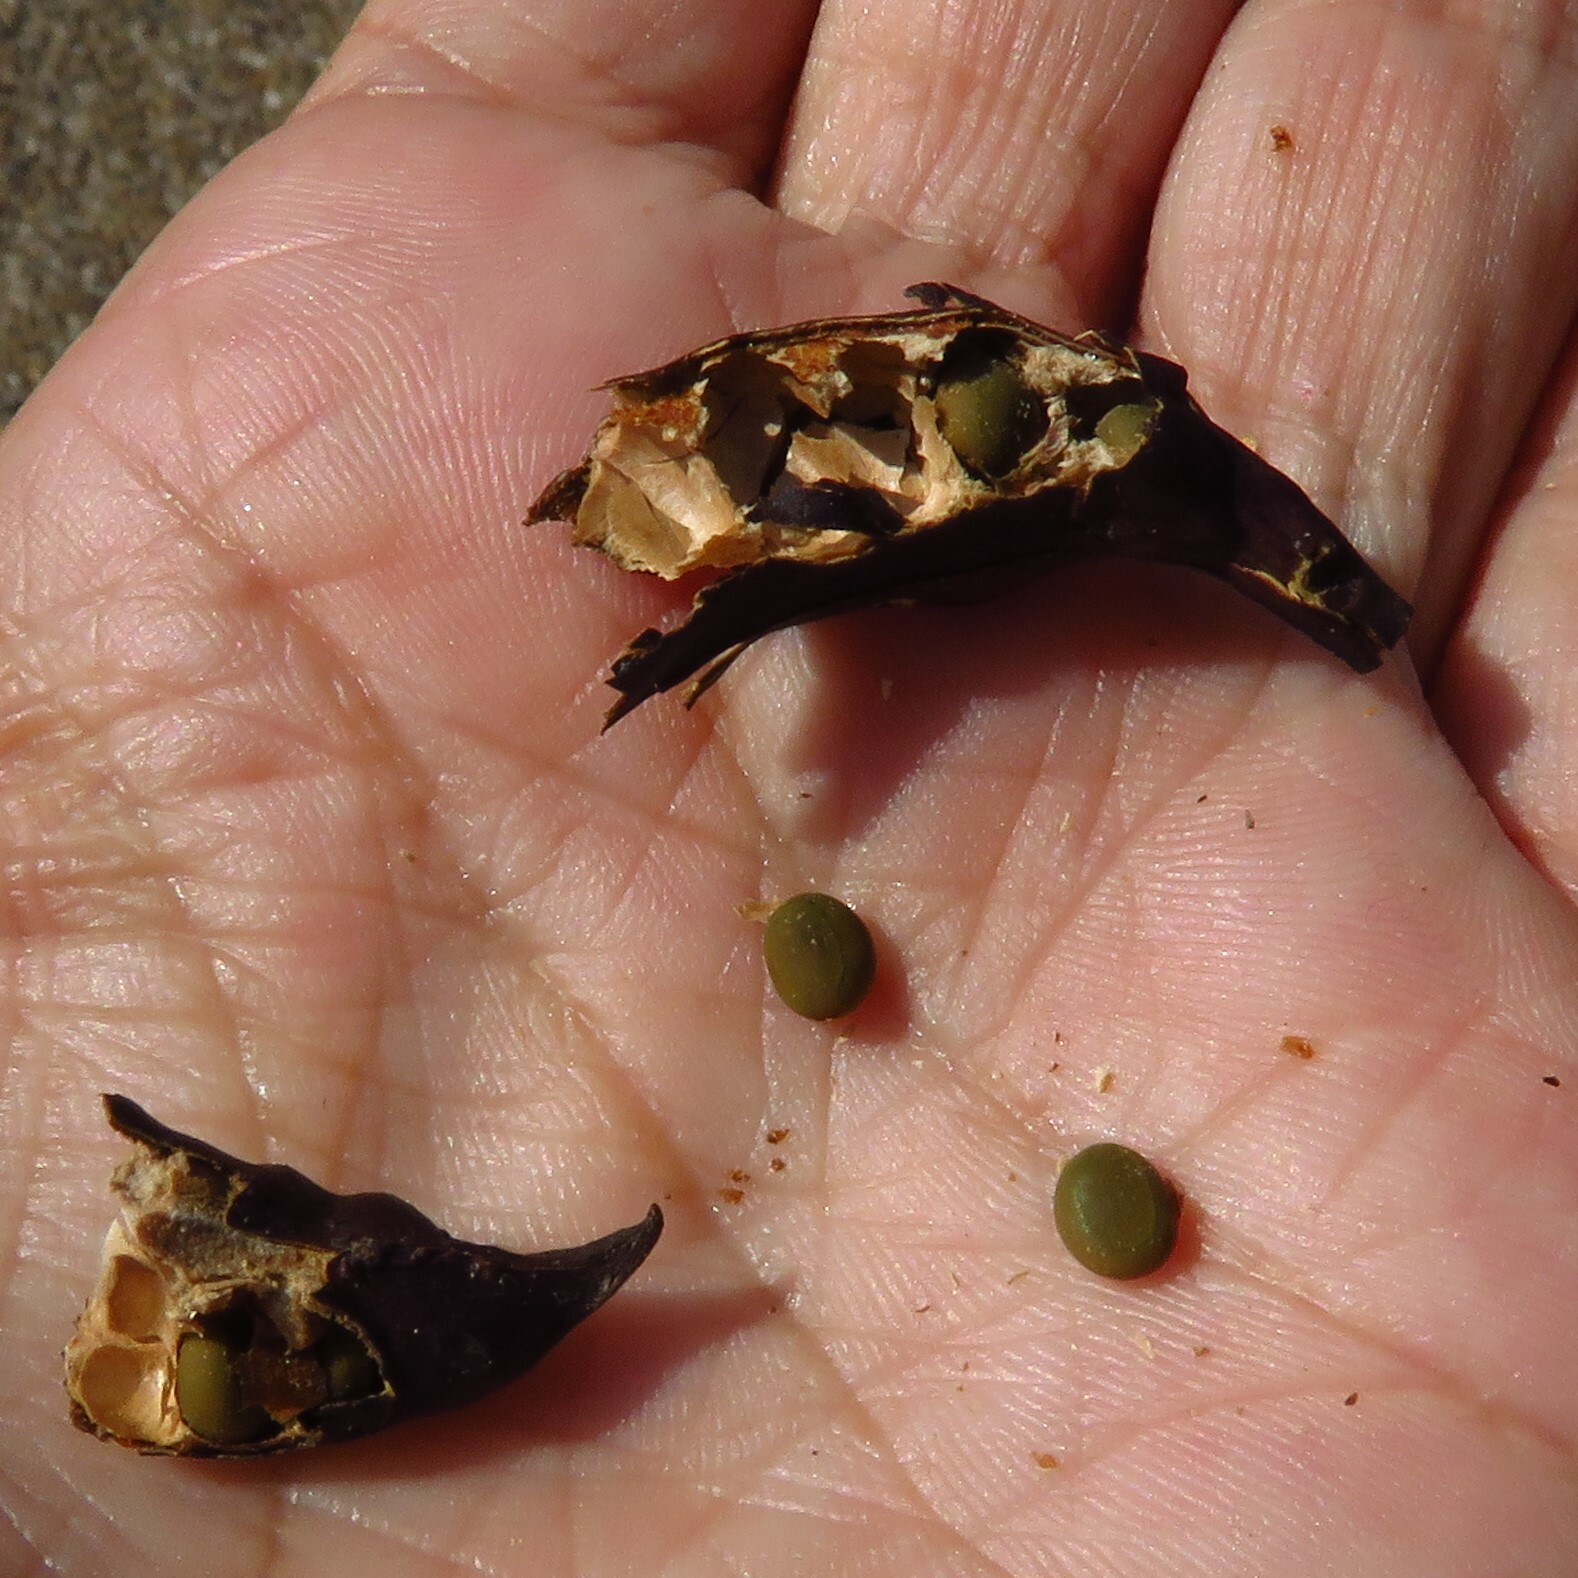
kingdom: Plantae
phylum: Tracheophyta
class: Magnoliopsida
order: Fabales
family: Fabaceae
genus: Vachellia
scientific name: Vachellia farnesiana
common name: Sweet acacia
